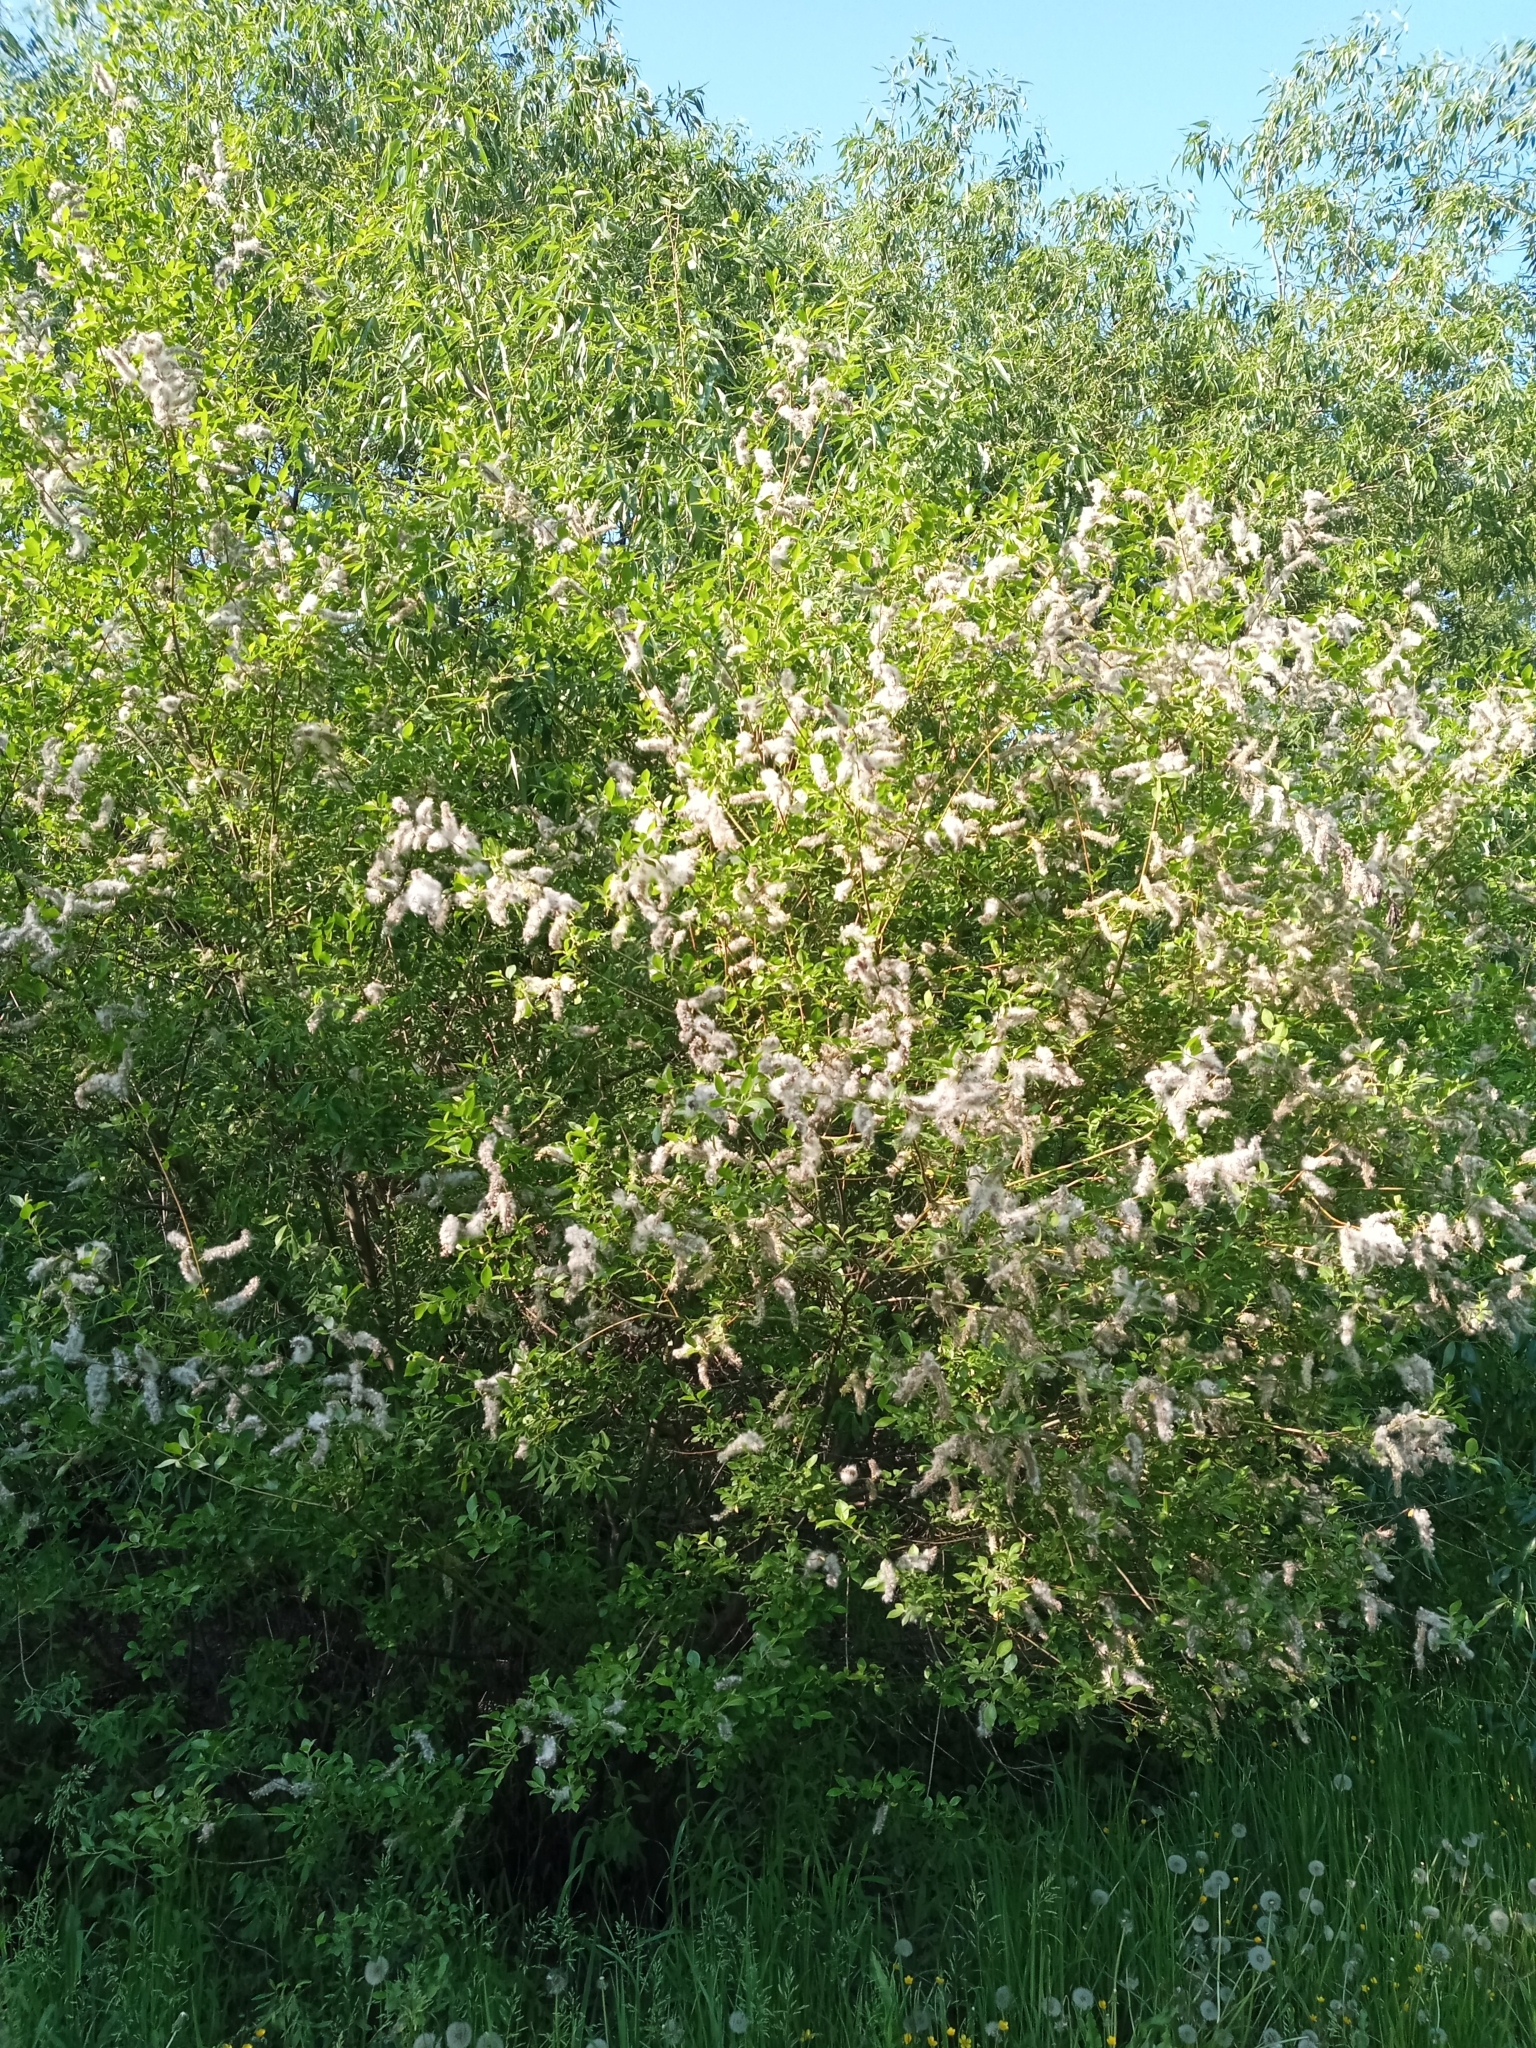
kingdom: Plantae
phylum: Tracheophyta
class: Magnoliopsida
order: Malpighiales
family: Salicaceae
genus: Salix
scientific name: Salix myrsinifolia
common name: Dark-leaved willow
